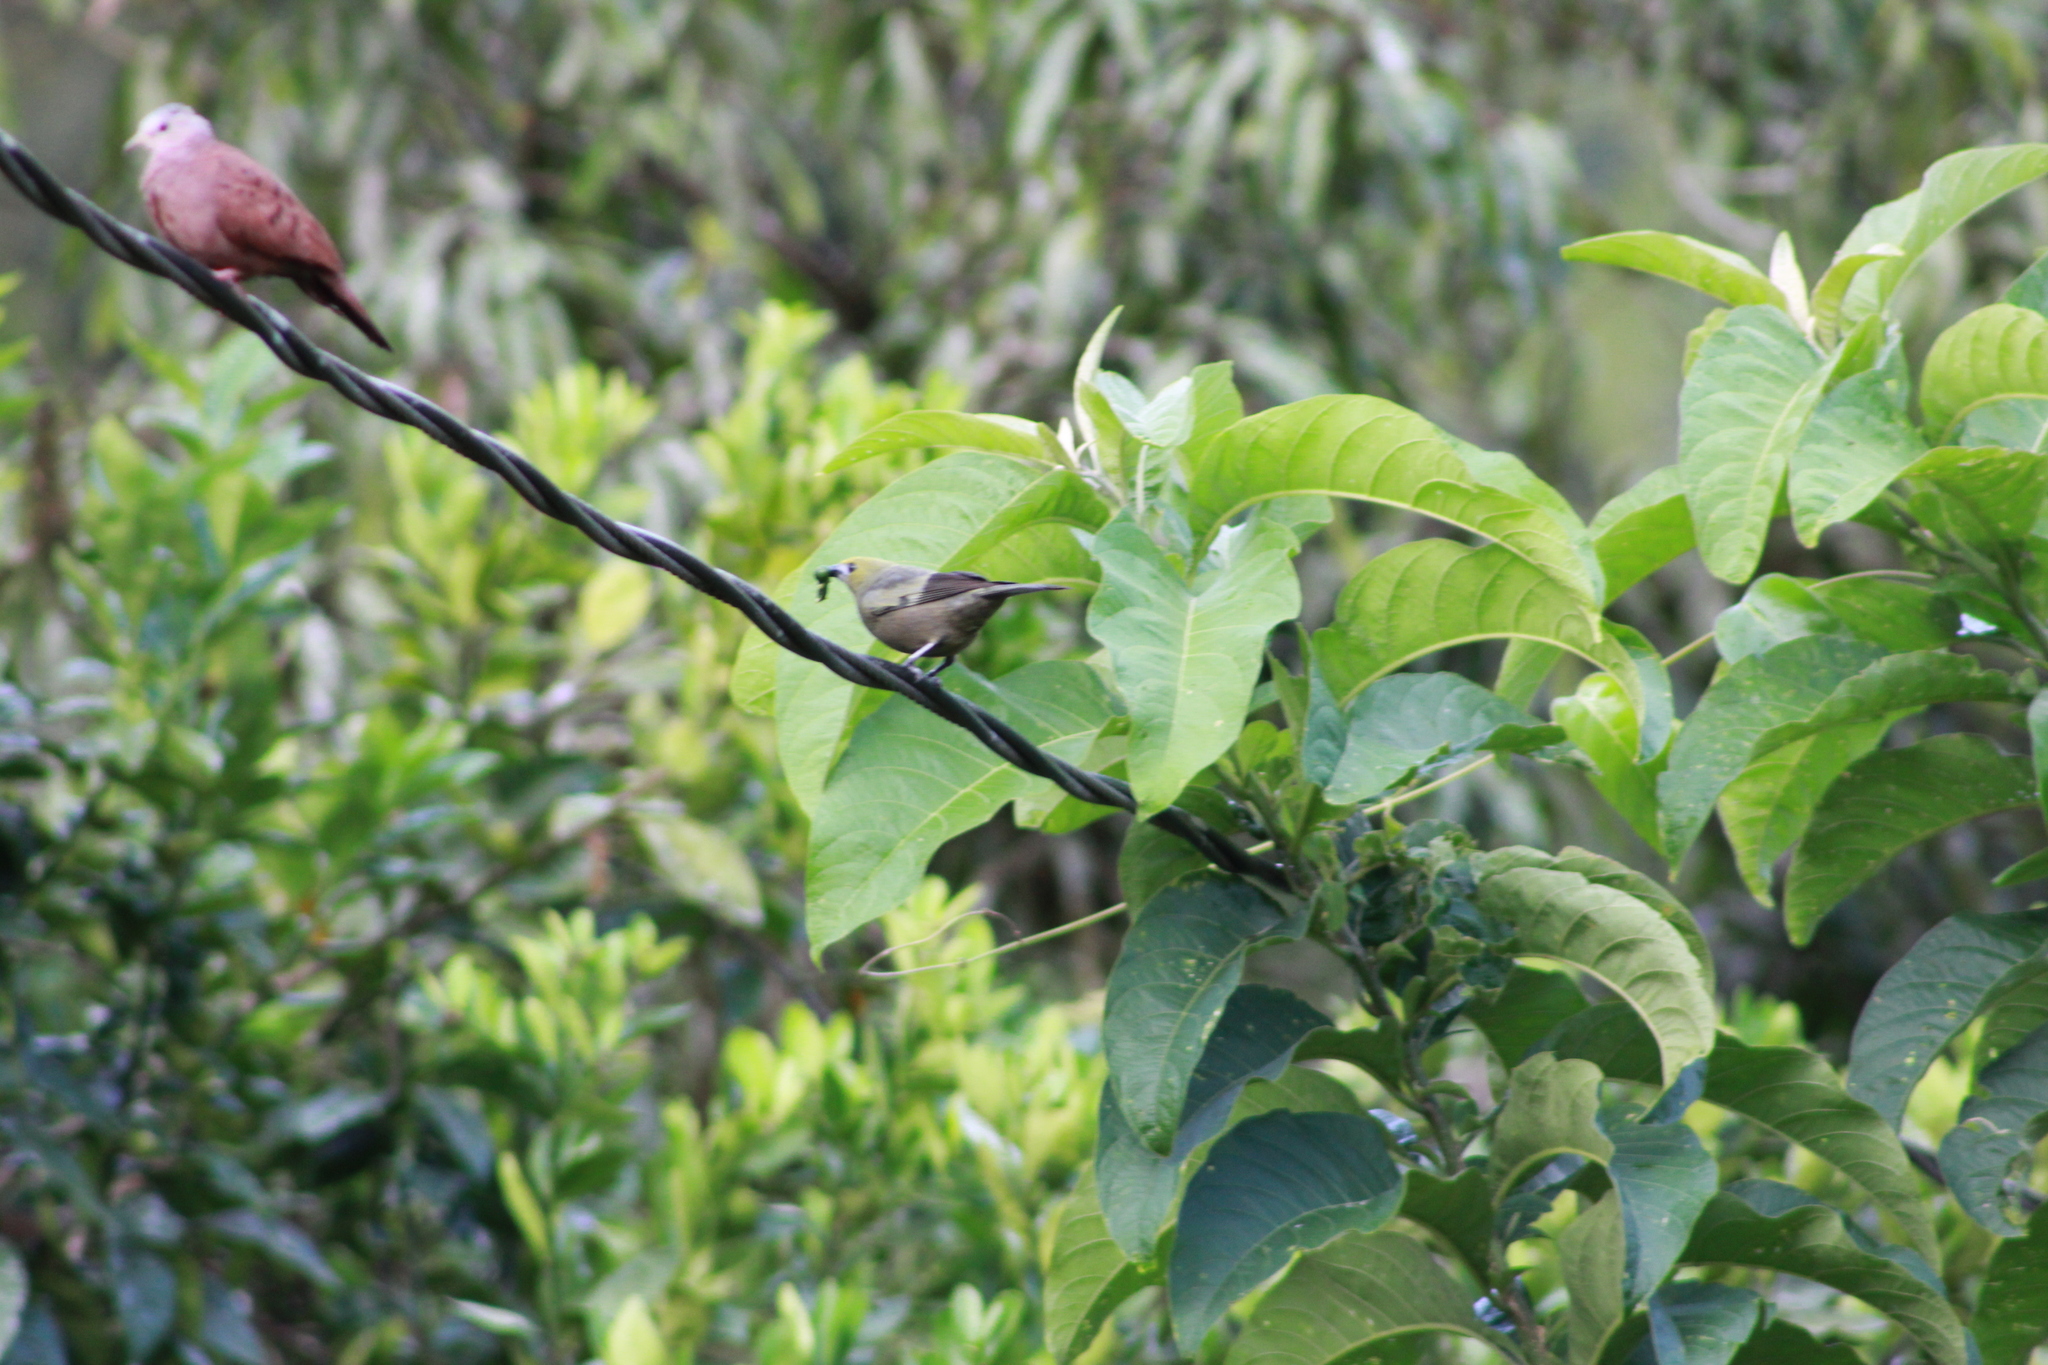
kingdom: Animalia
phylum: Chordata
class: Aves
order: Passeriformes
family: Thraupidae
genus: Thraupis
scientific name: Thraupis palmarum
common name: Palm tanager
